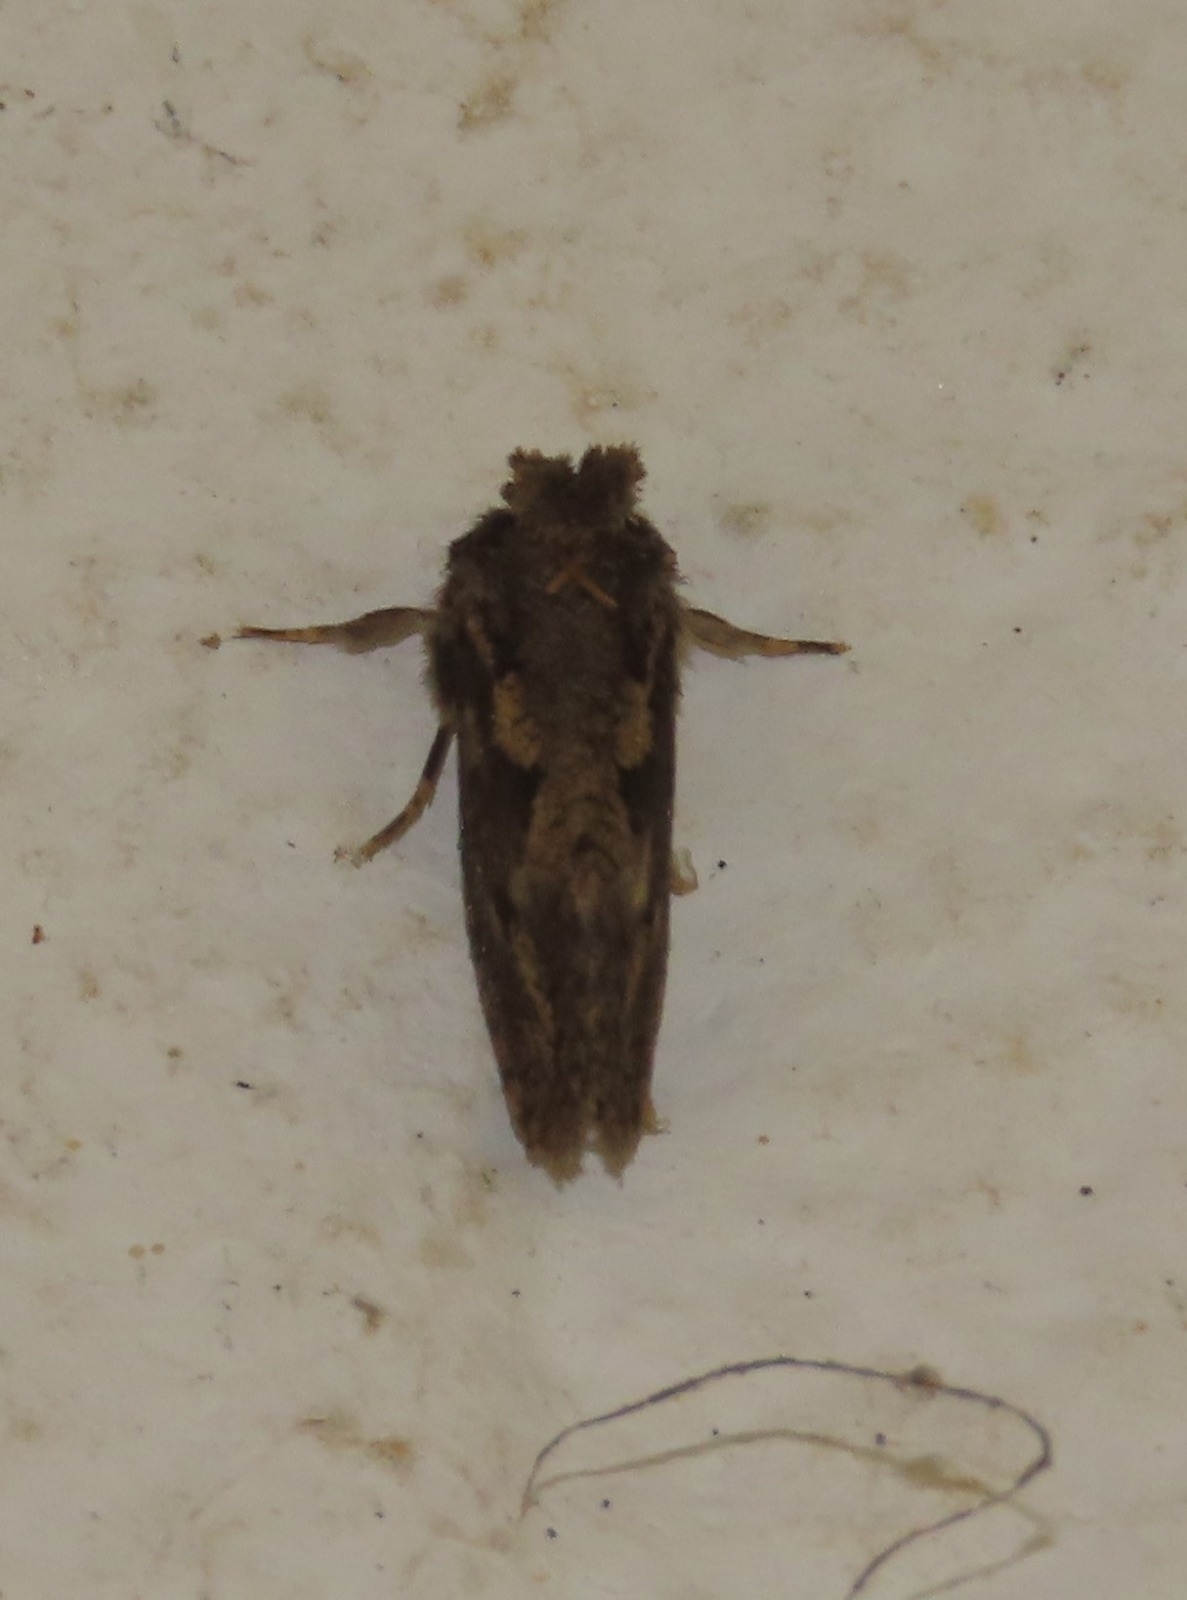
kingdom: Animalia
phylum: Arthropoda
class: Insecta
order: Lepidoptera
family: Tineidae
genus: Acrolophus
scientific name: Acrolophus arcanella
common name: Arcane grass tubeworm moth
